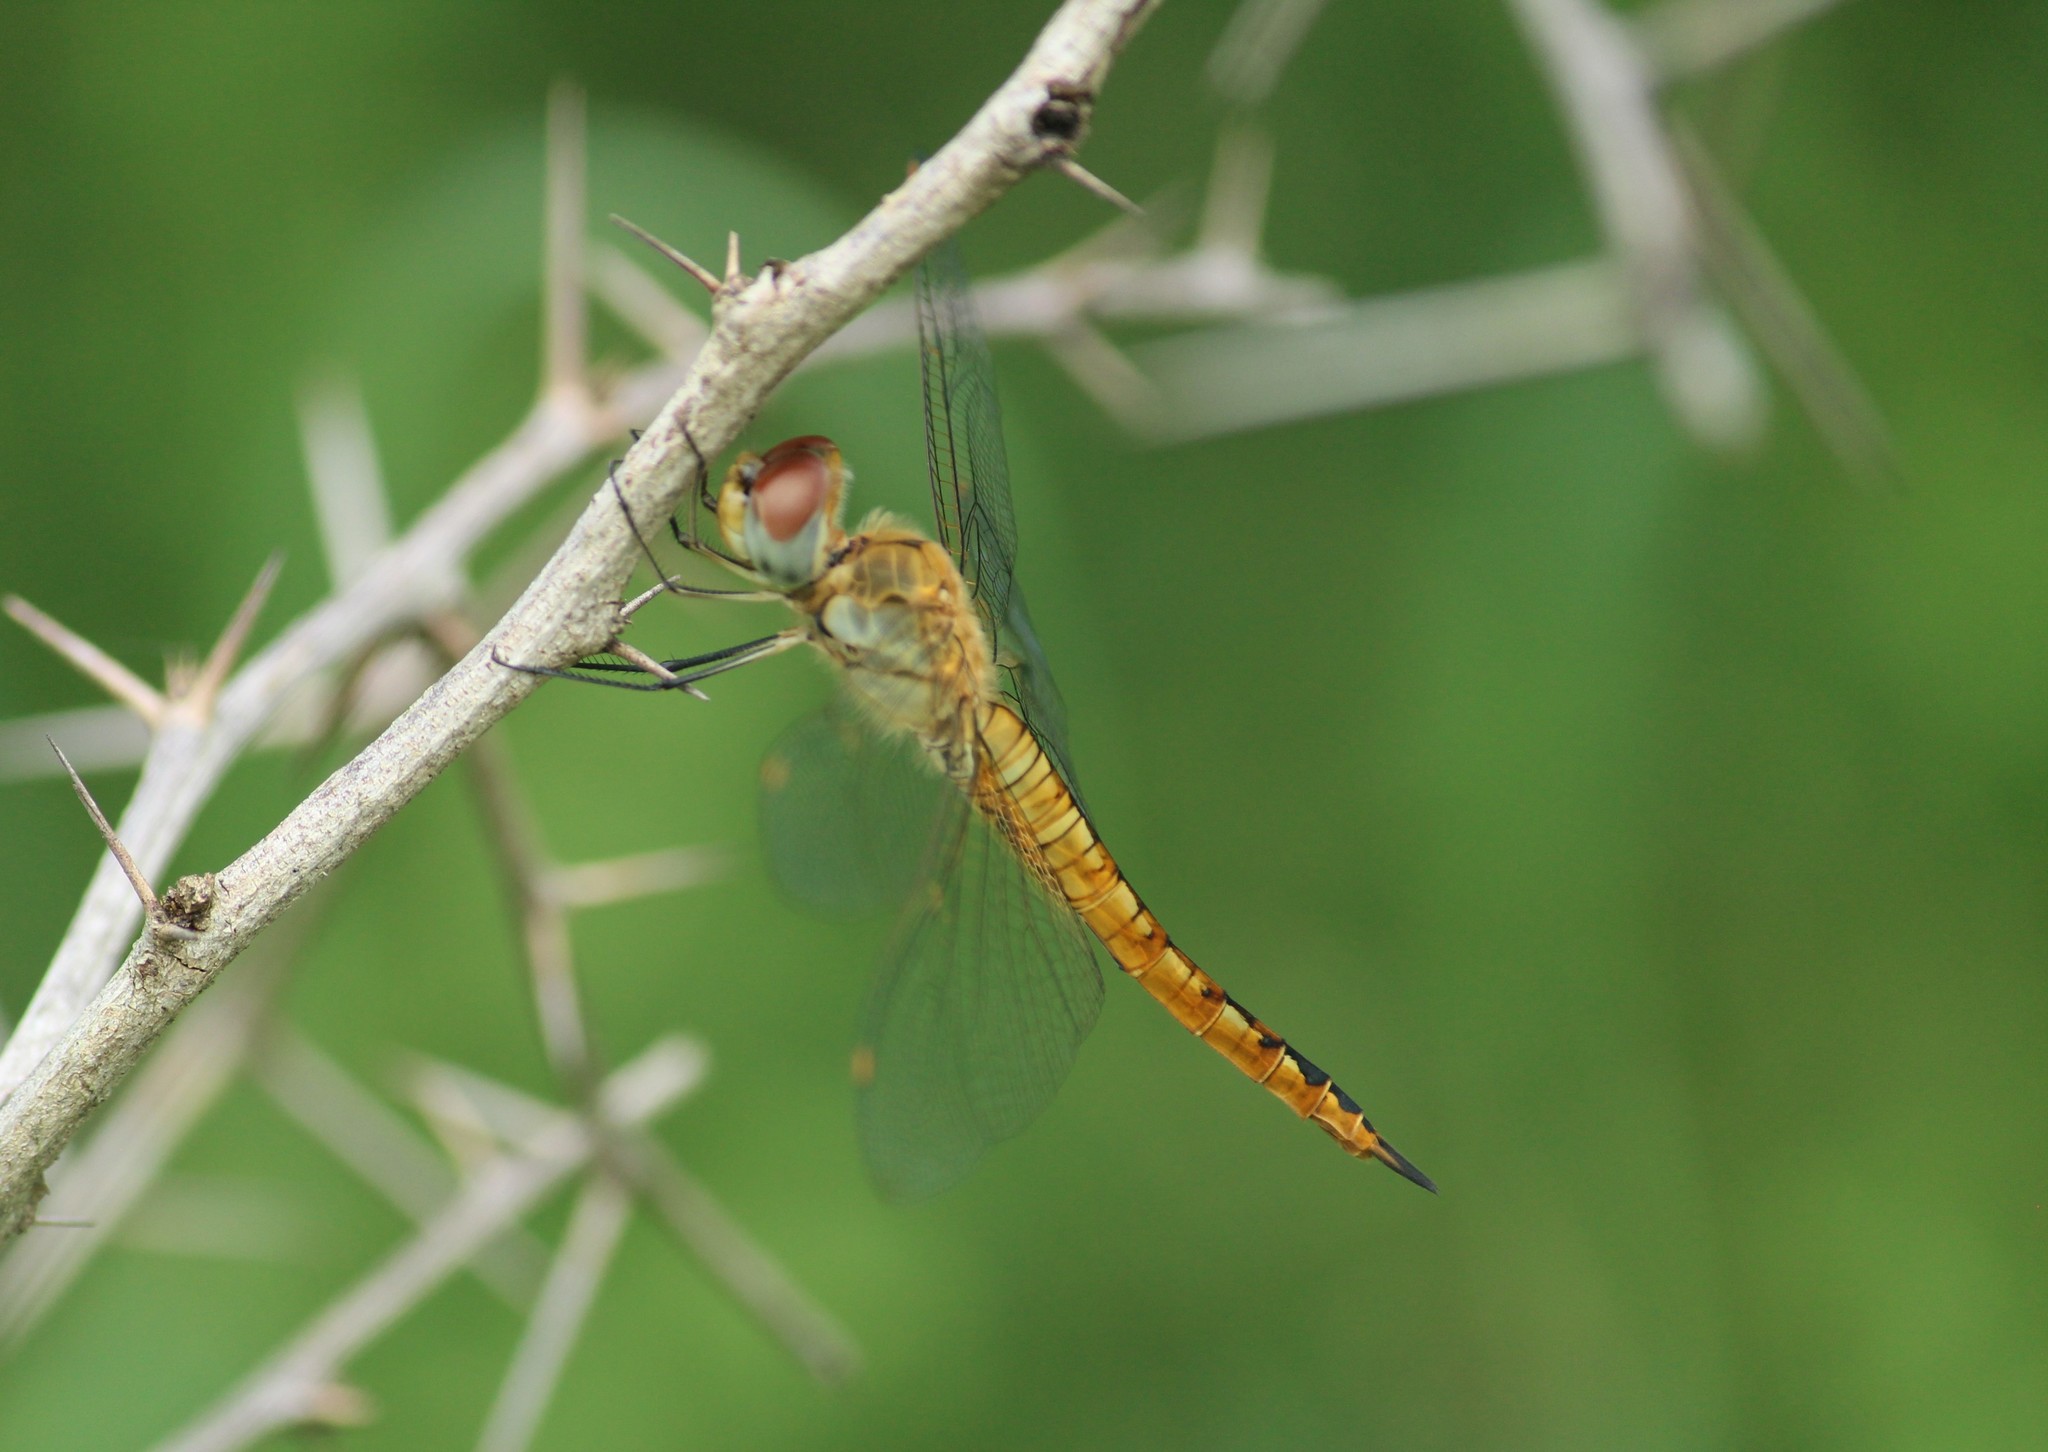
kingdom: Animalia
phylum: Arthropoda
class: Insecta
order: Odonata
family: Libellulidae
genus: Pantala
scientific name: Pantala flavescens
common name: Wandering glider
